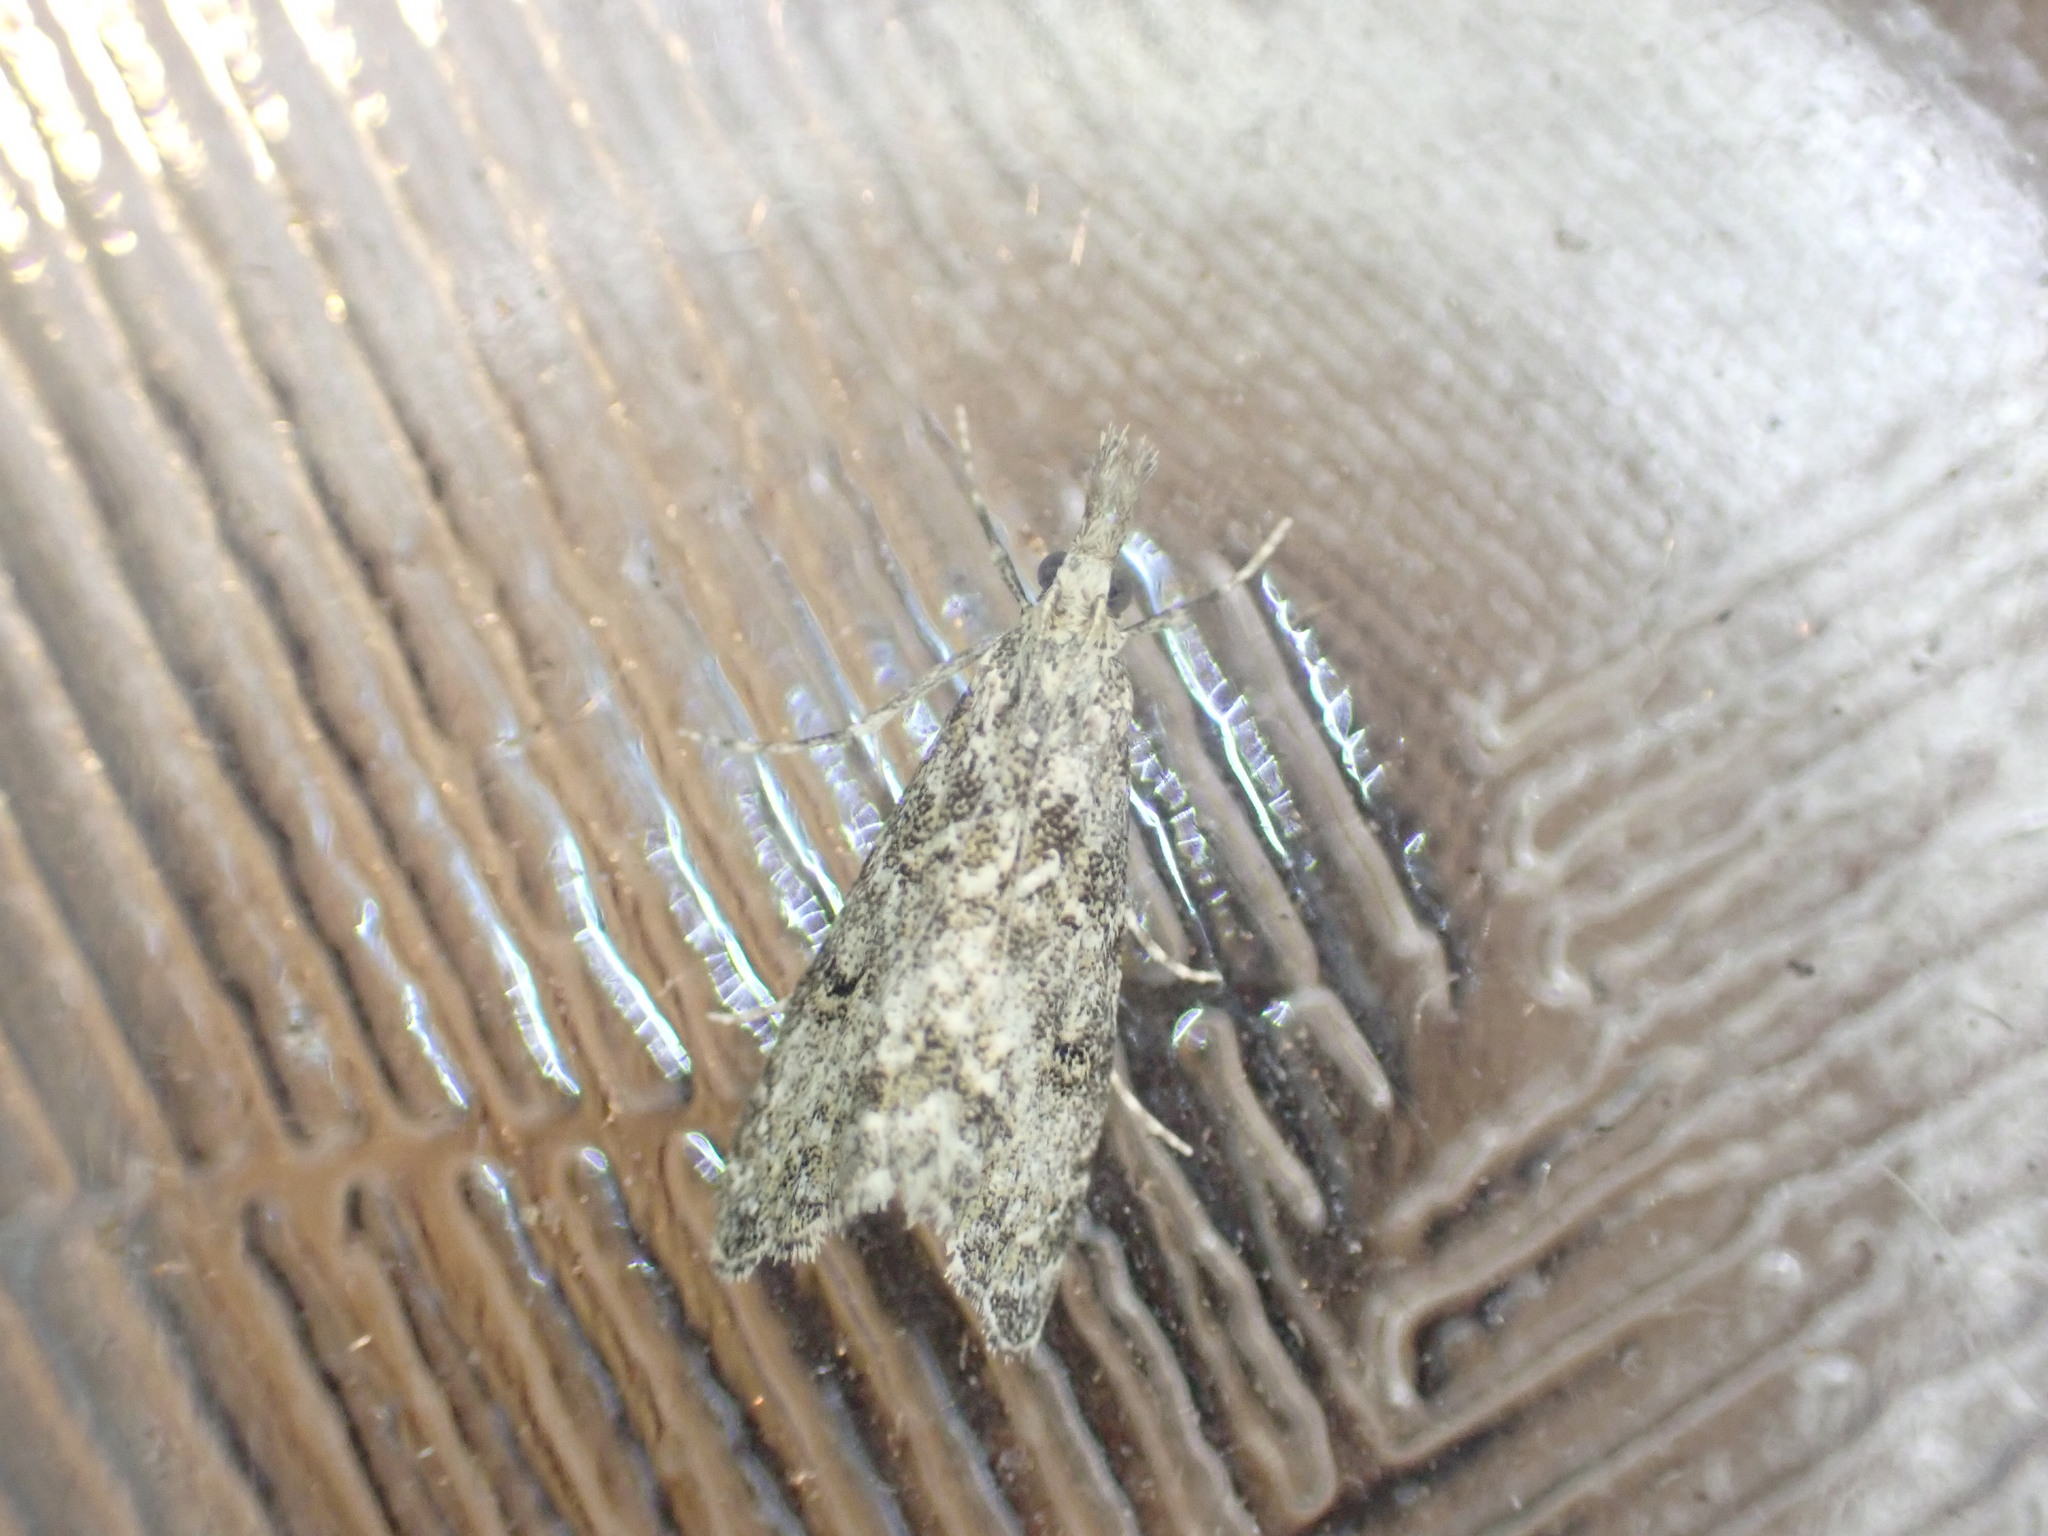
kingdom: Animalia
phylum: Arthropoda
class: Insecta
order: Lepidoptera
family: Crambidae
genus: Glaucocharis
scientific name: Glaucocharis elaina
